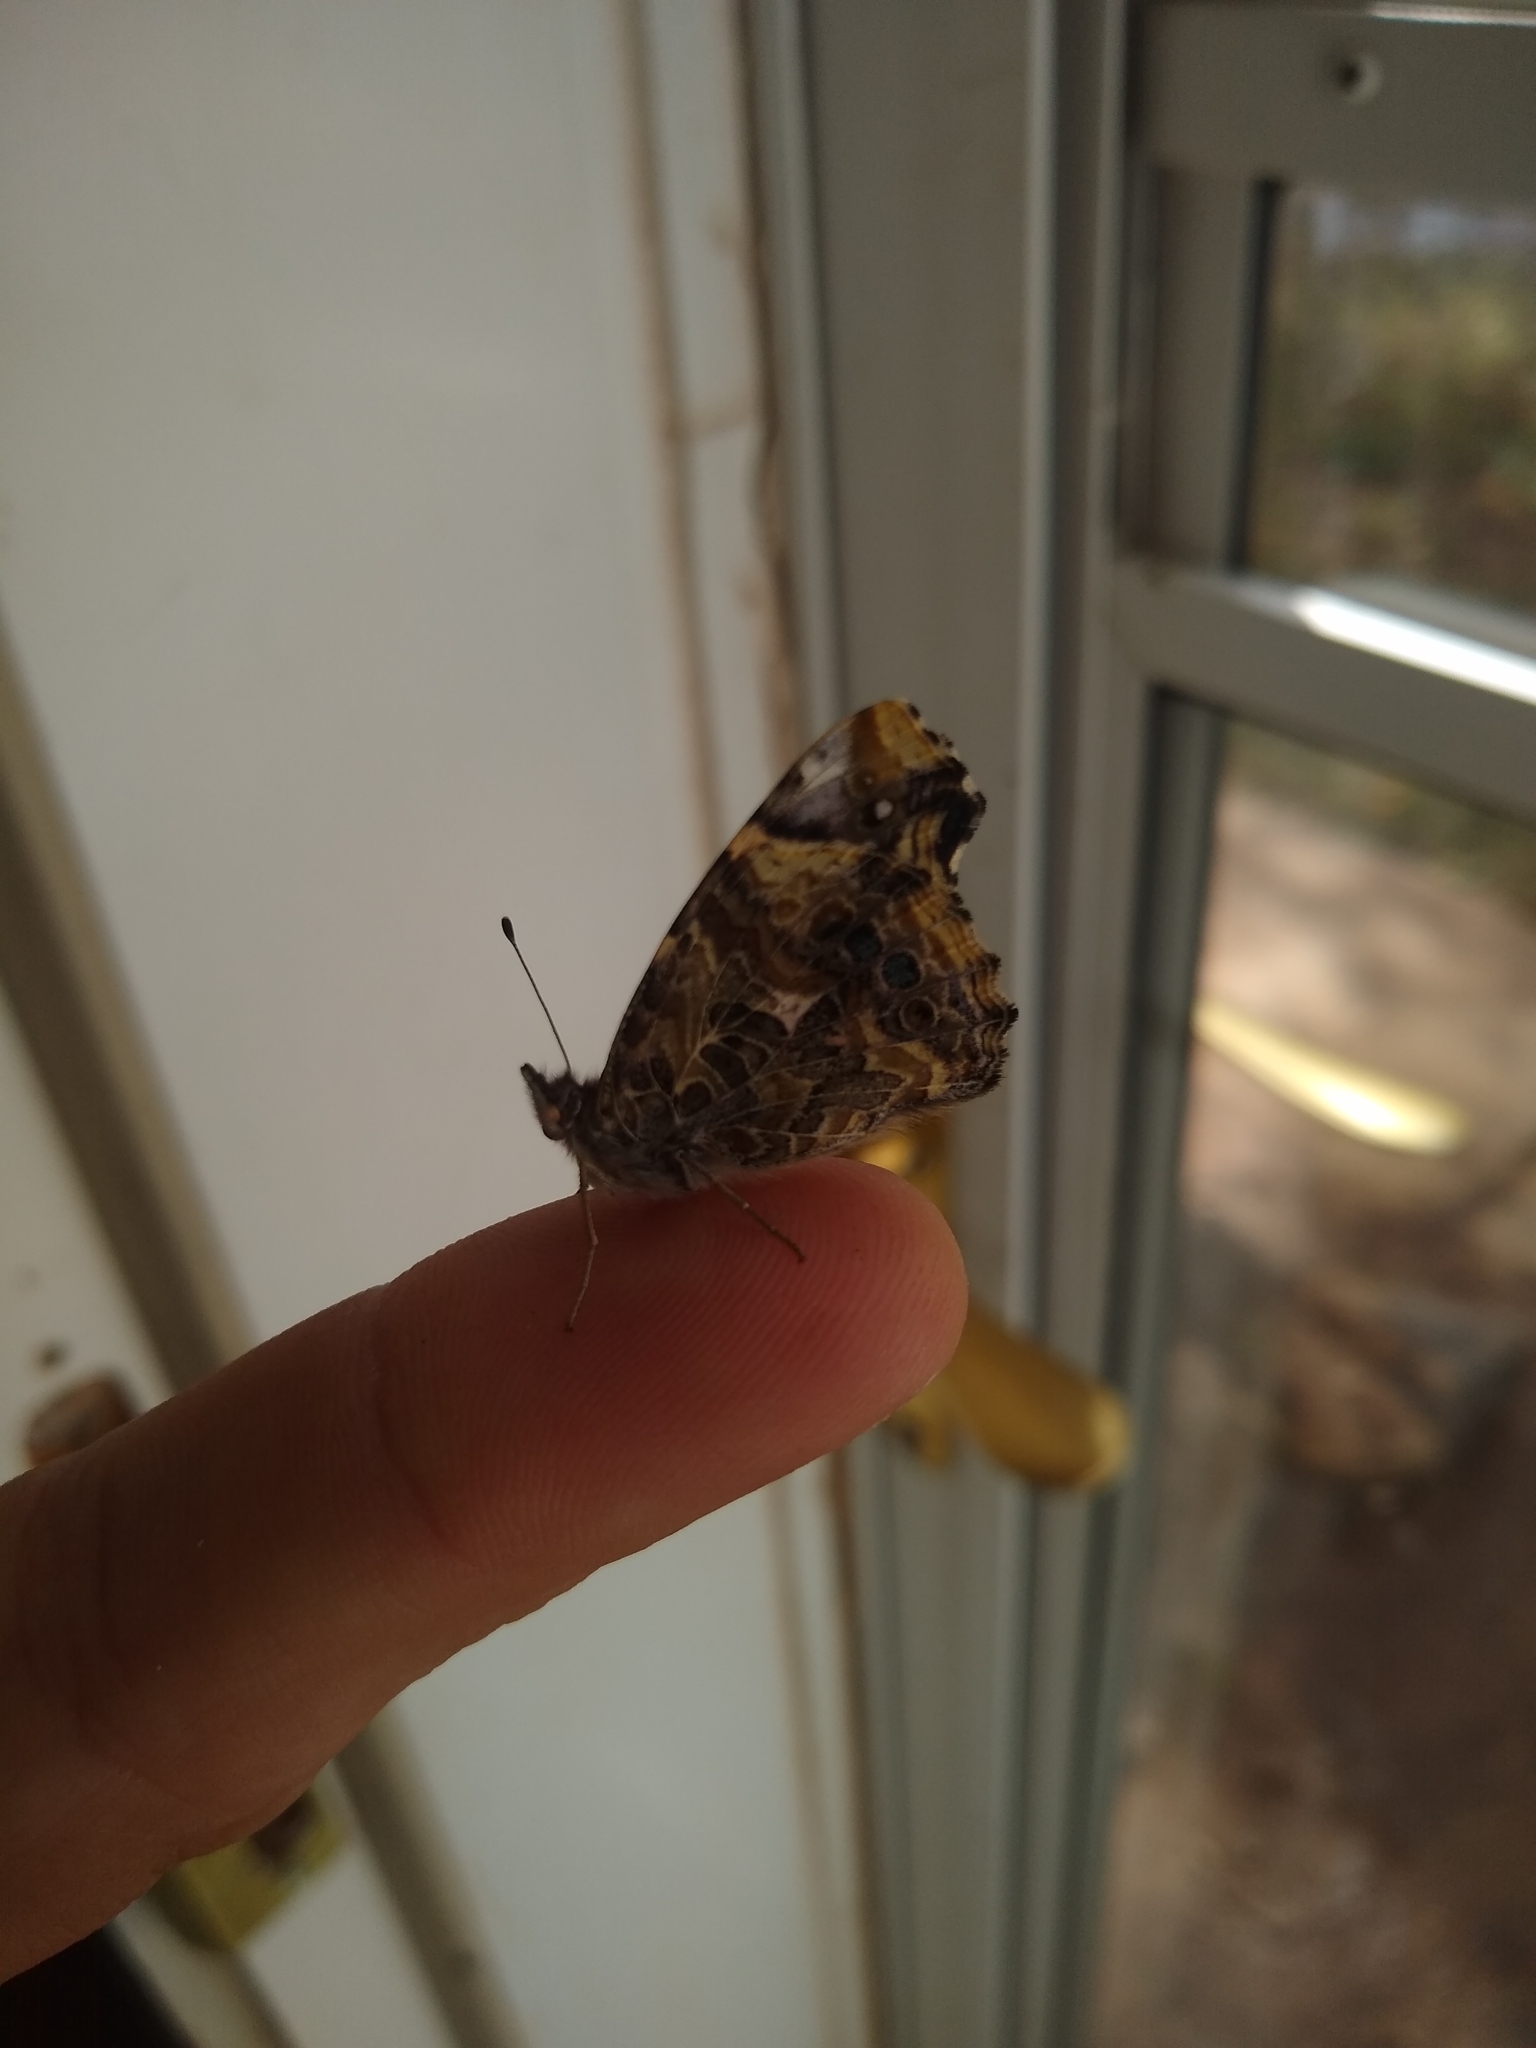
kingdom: Animalia
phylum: Arthropoda
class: Insecta
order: Lepidoptera
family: Nymphalidae
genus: Vanessa
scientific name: Vanessa annabella
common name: West coast lady
